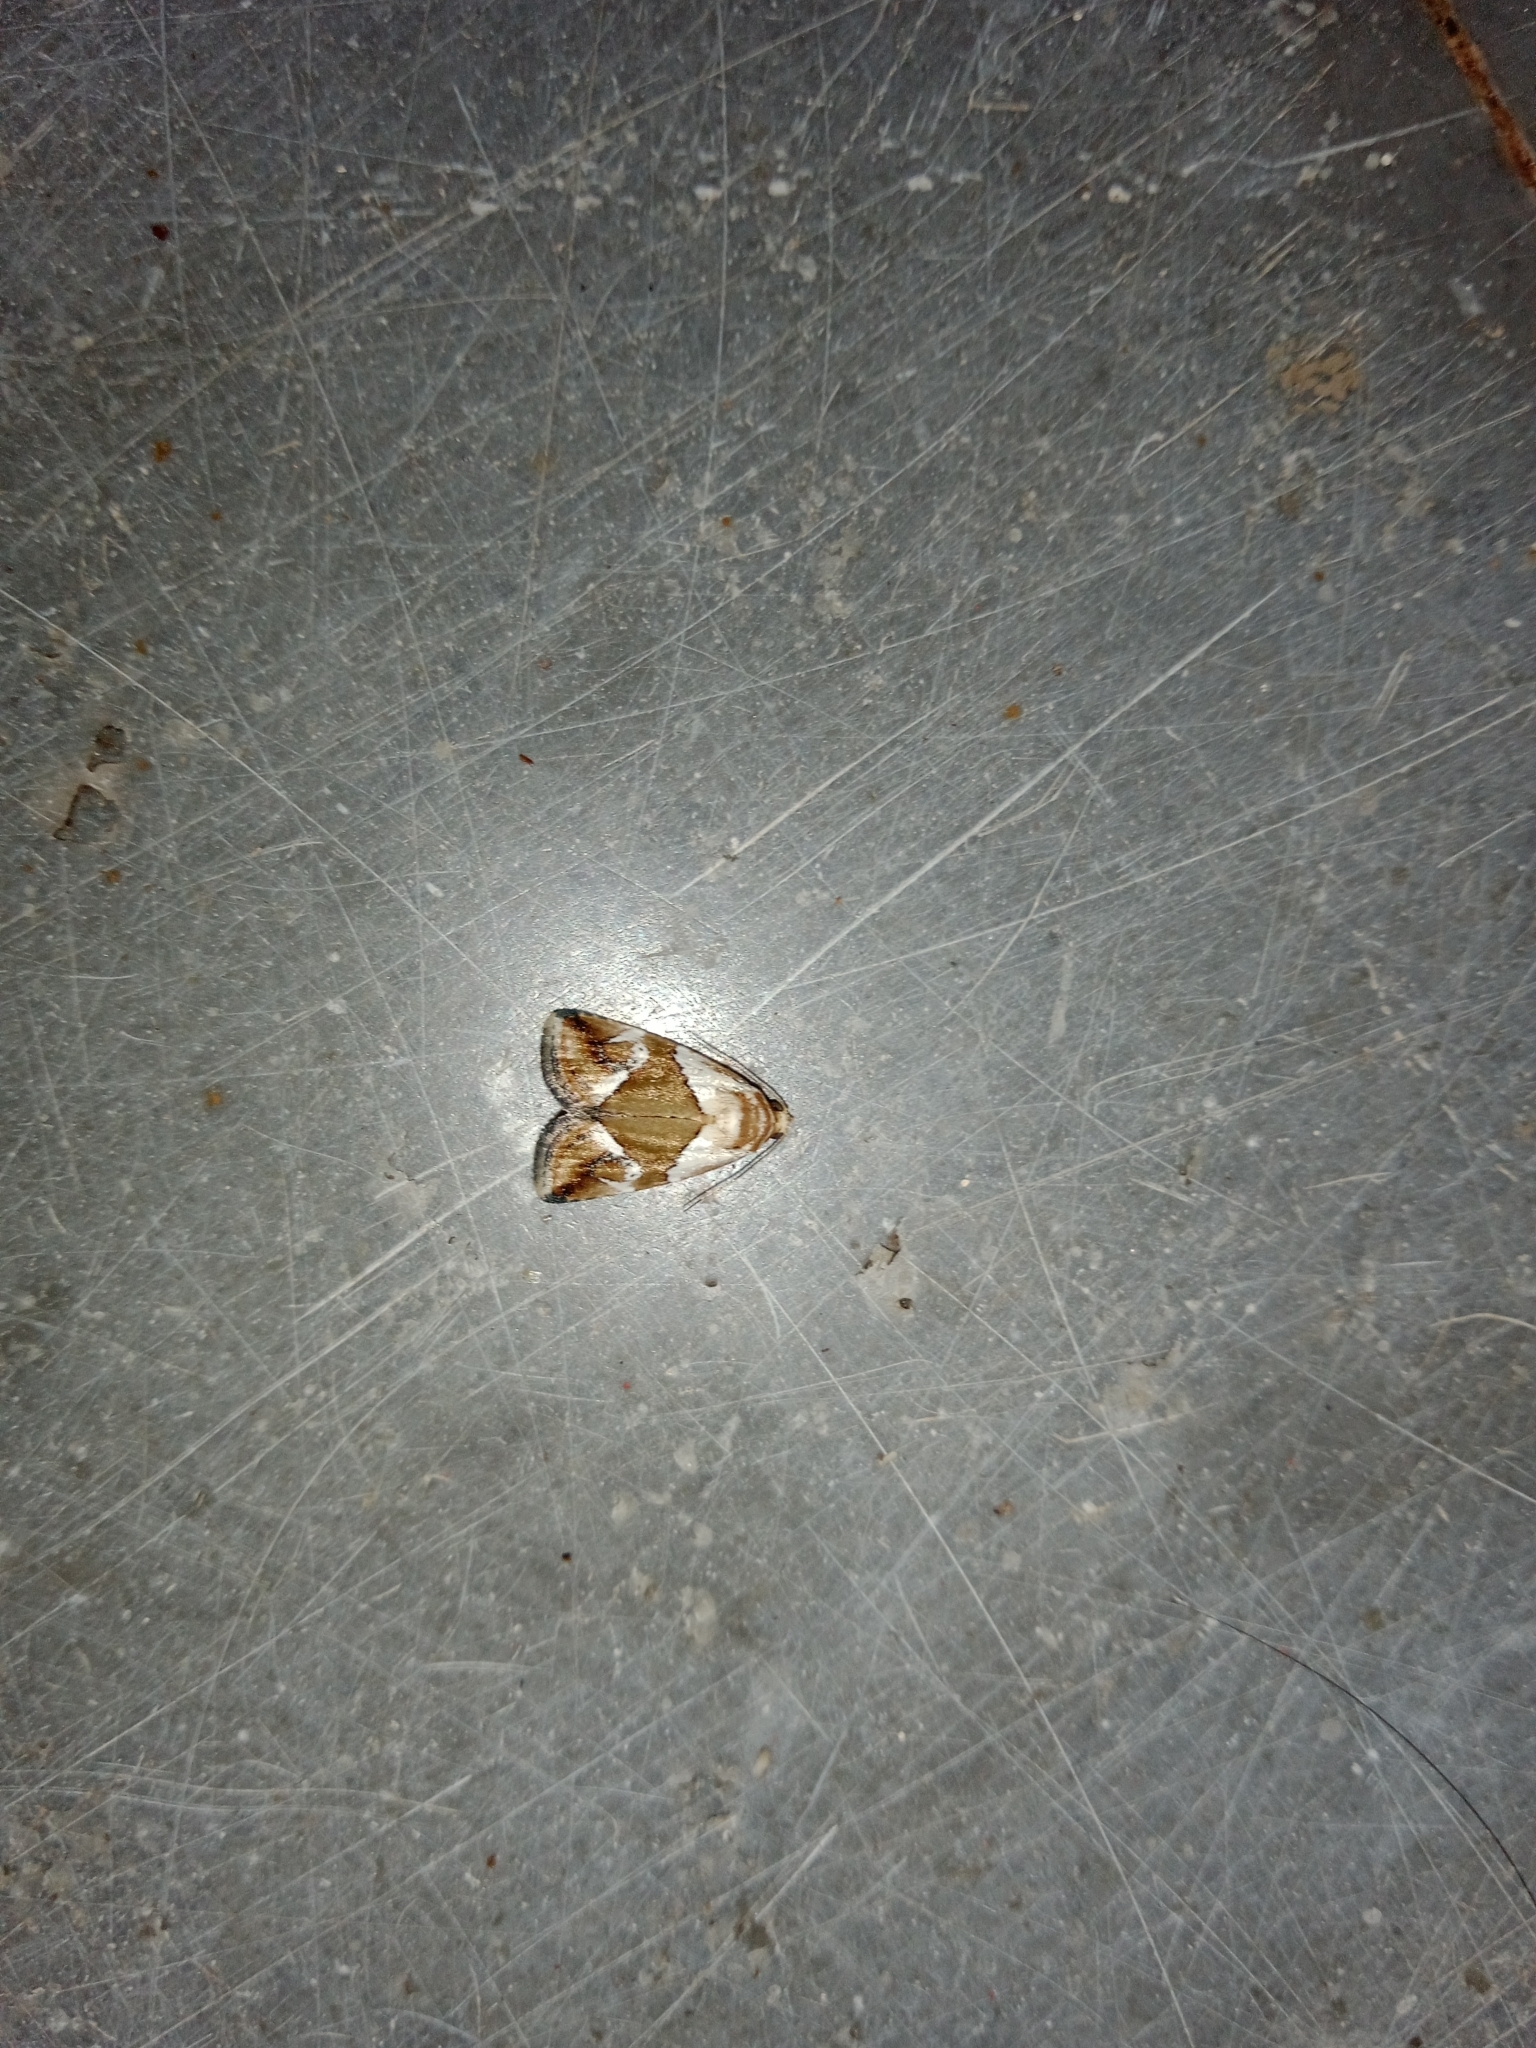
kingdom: Animalia
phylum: Arthropoda
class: Insecta
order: Lepidoptera
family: Noctuidae
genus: Maliattha
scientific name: Maliattha lativitta
